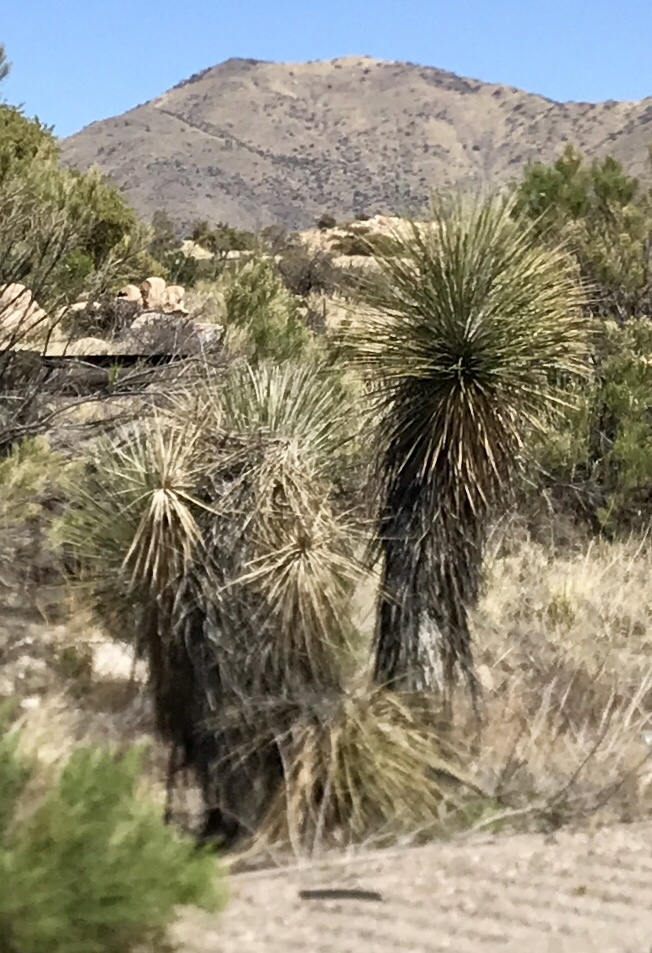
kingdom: Plantae
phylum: Tracheophyta
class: Liliopsida
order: Asparagales
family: Asparagaceae
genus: Yucca
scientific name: Yucca elata
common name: Palmella
